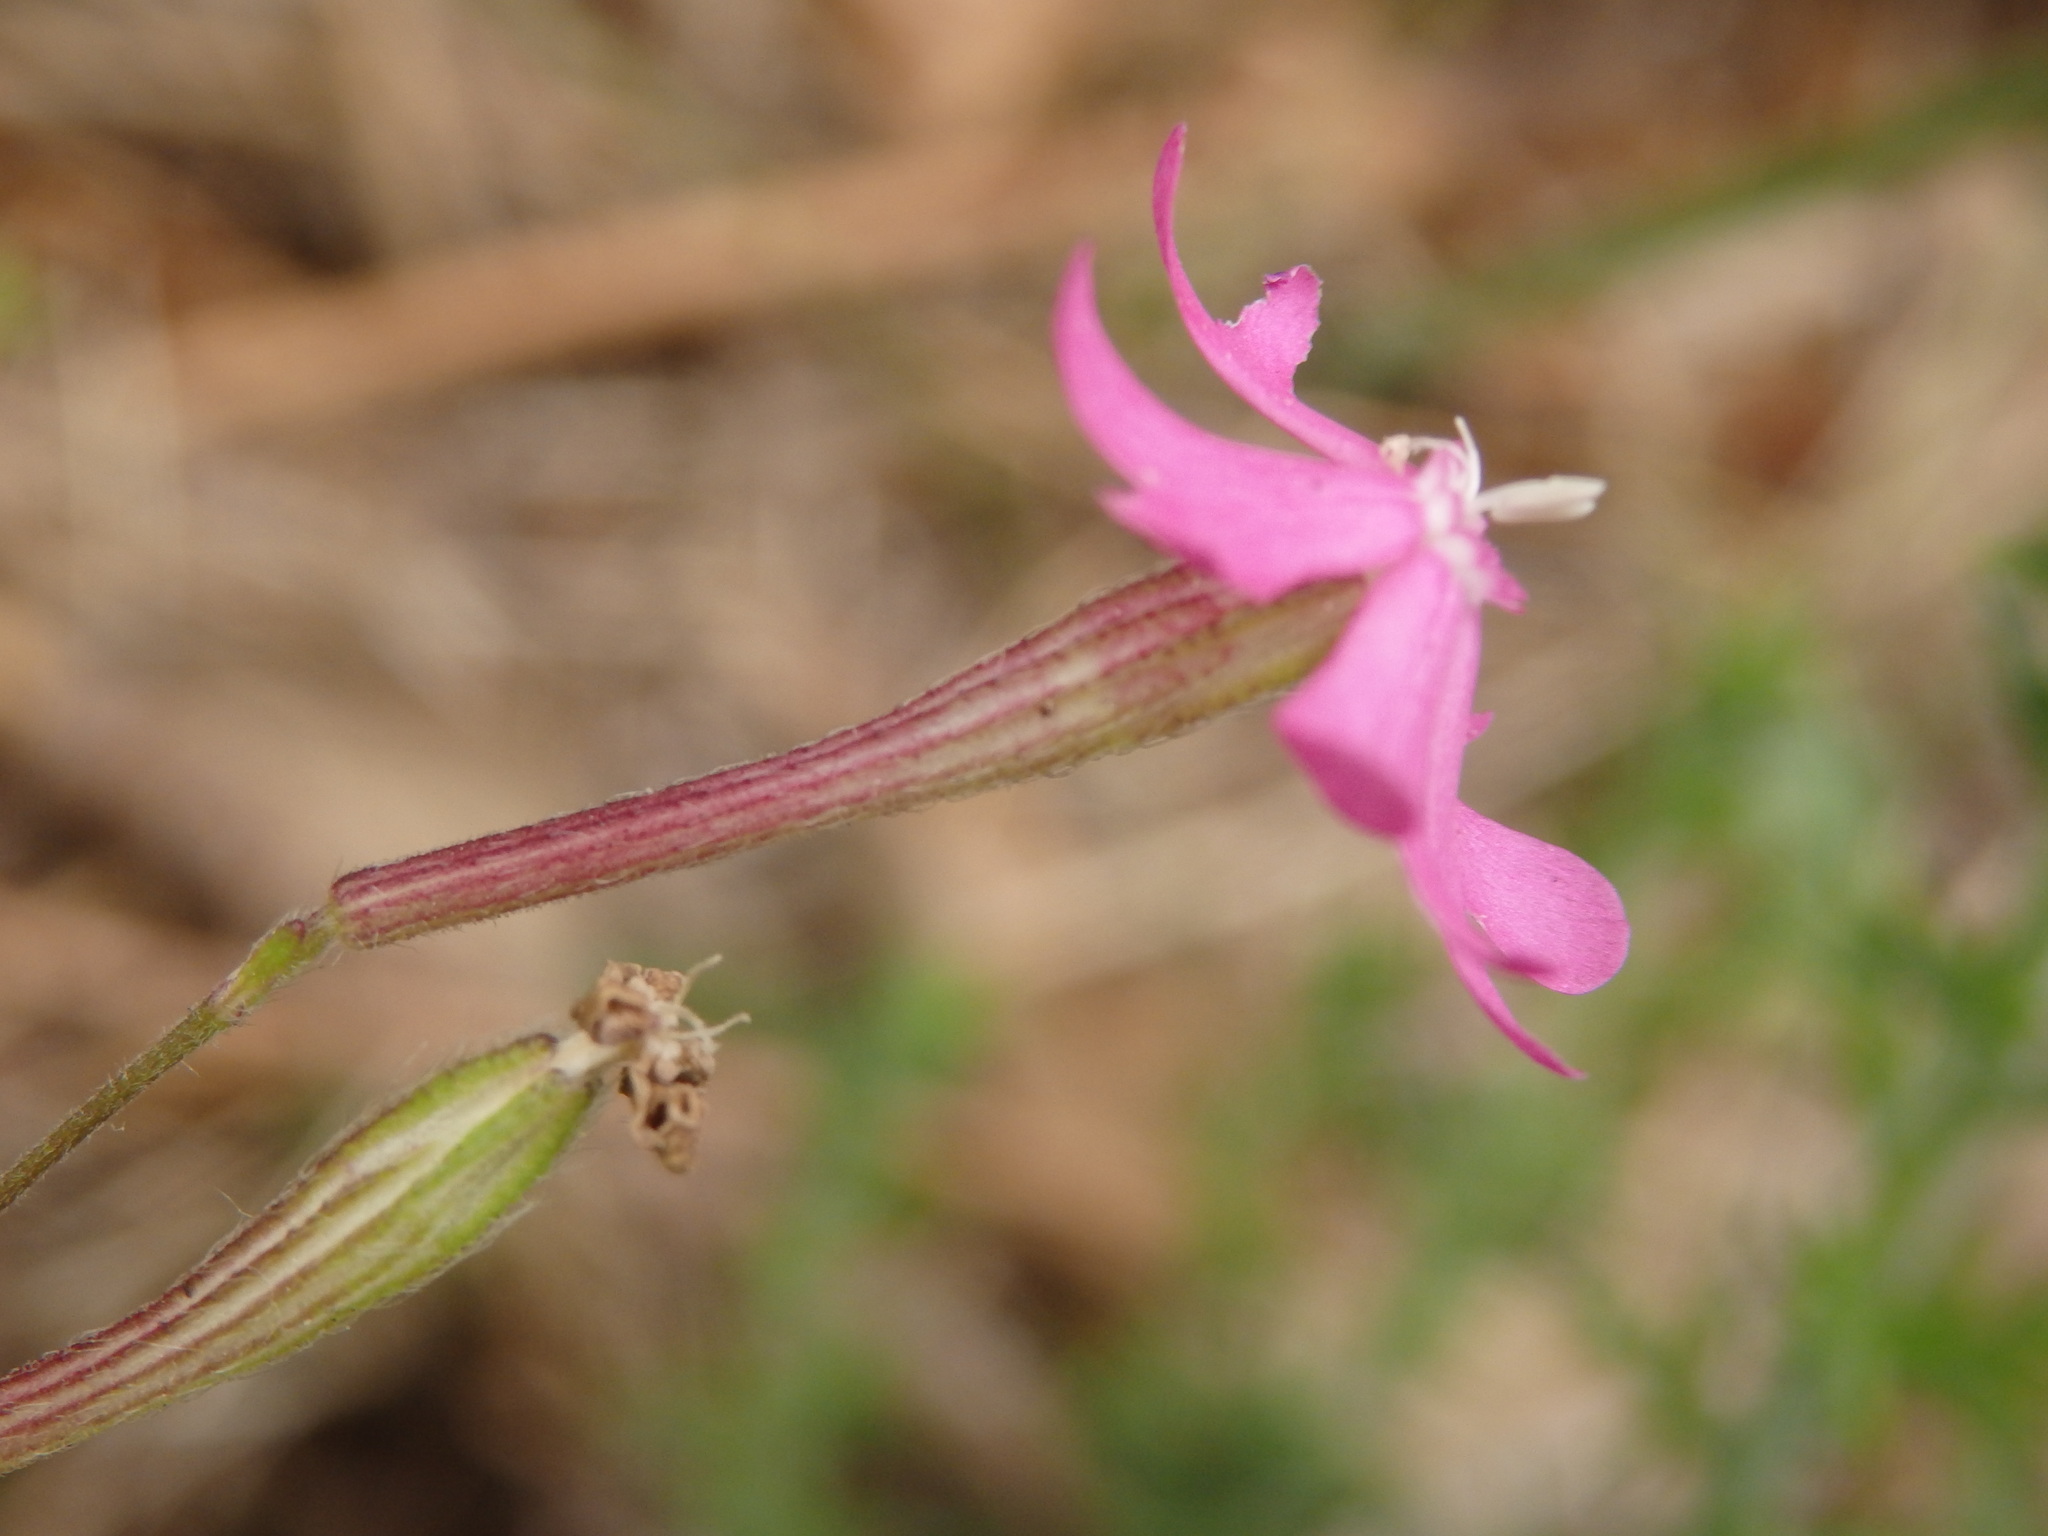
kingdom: Plantae
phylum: Tracheophyta
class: Magnoliopsida
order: Caryophyllales
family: Caryophyllaceae
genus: Silene
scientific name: Silene scabriflora
